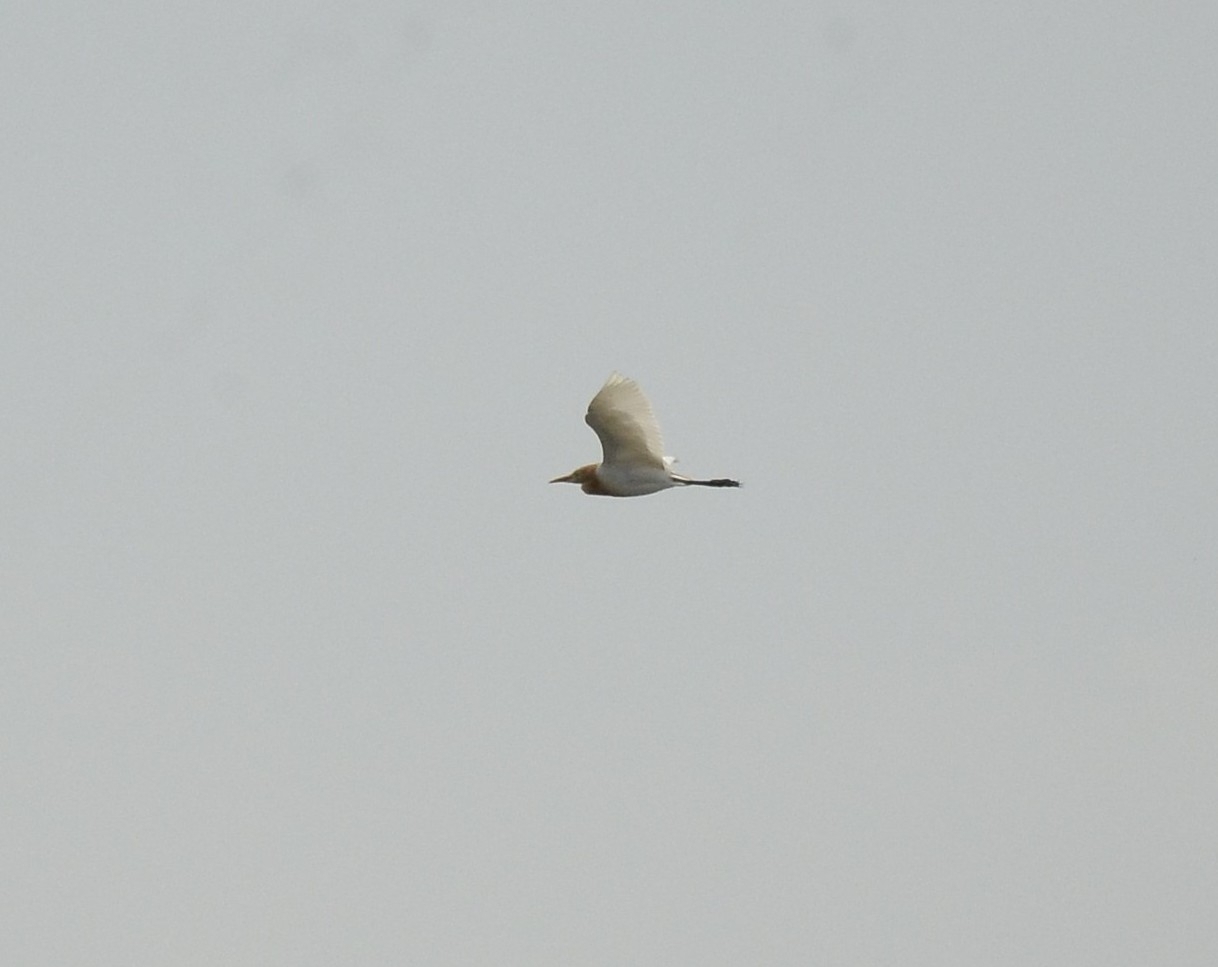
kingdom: Animalia
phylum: Chordata
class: Aves
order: Pelecaniformes
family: Ardeidae
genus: Bubulcus
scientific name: Bubulcus coromandus
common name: Eastern cattle egret
